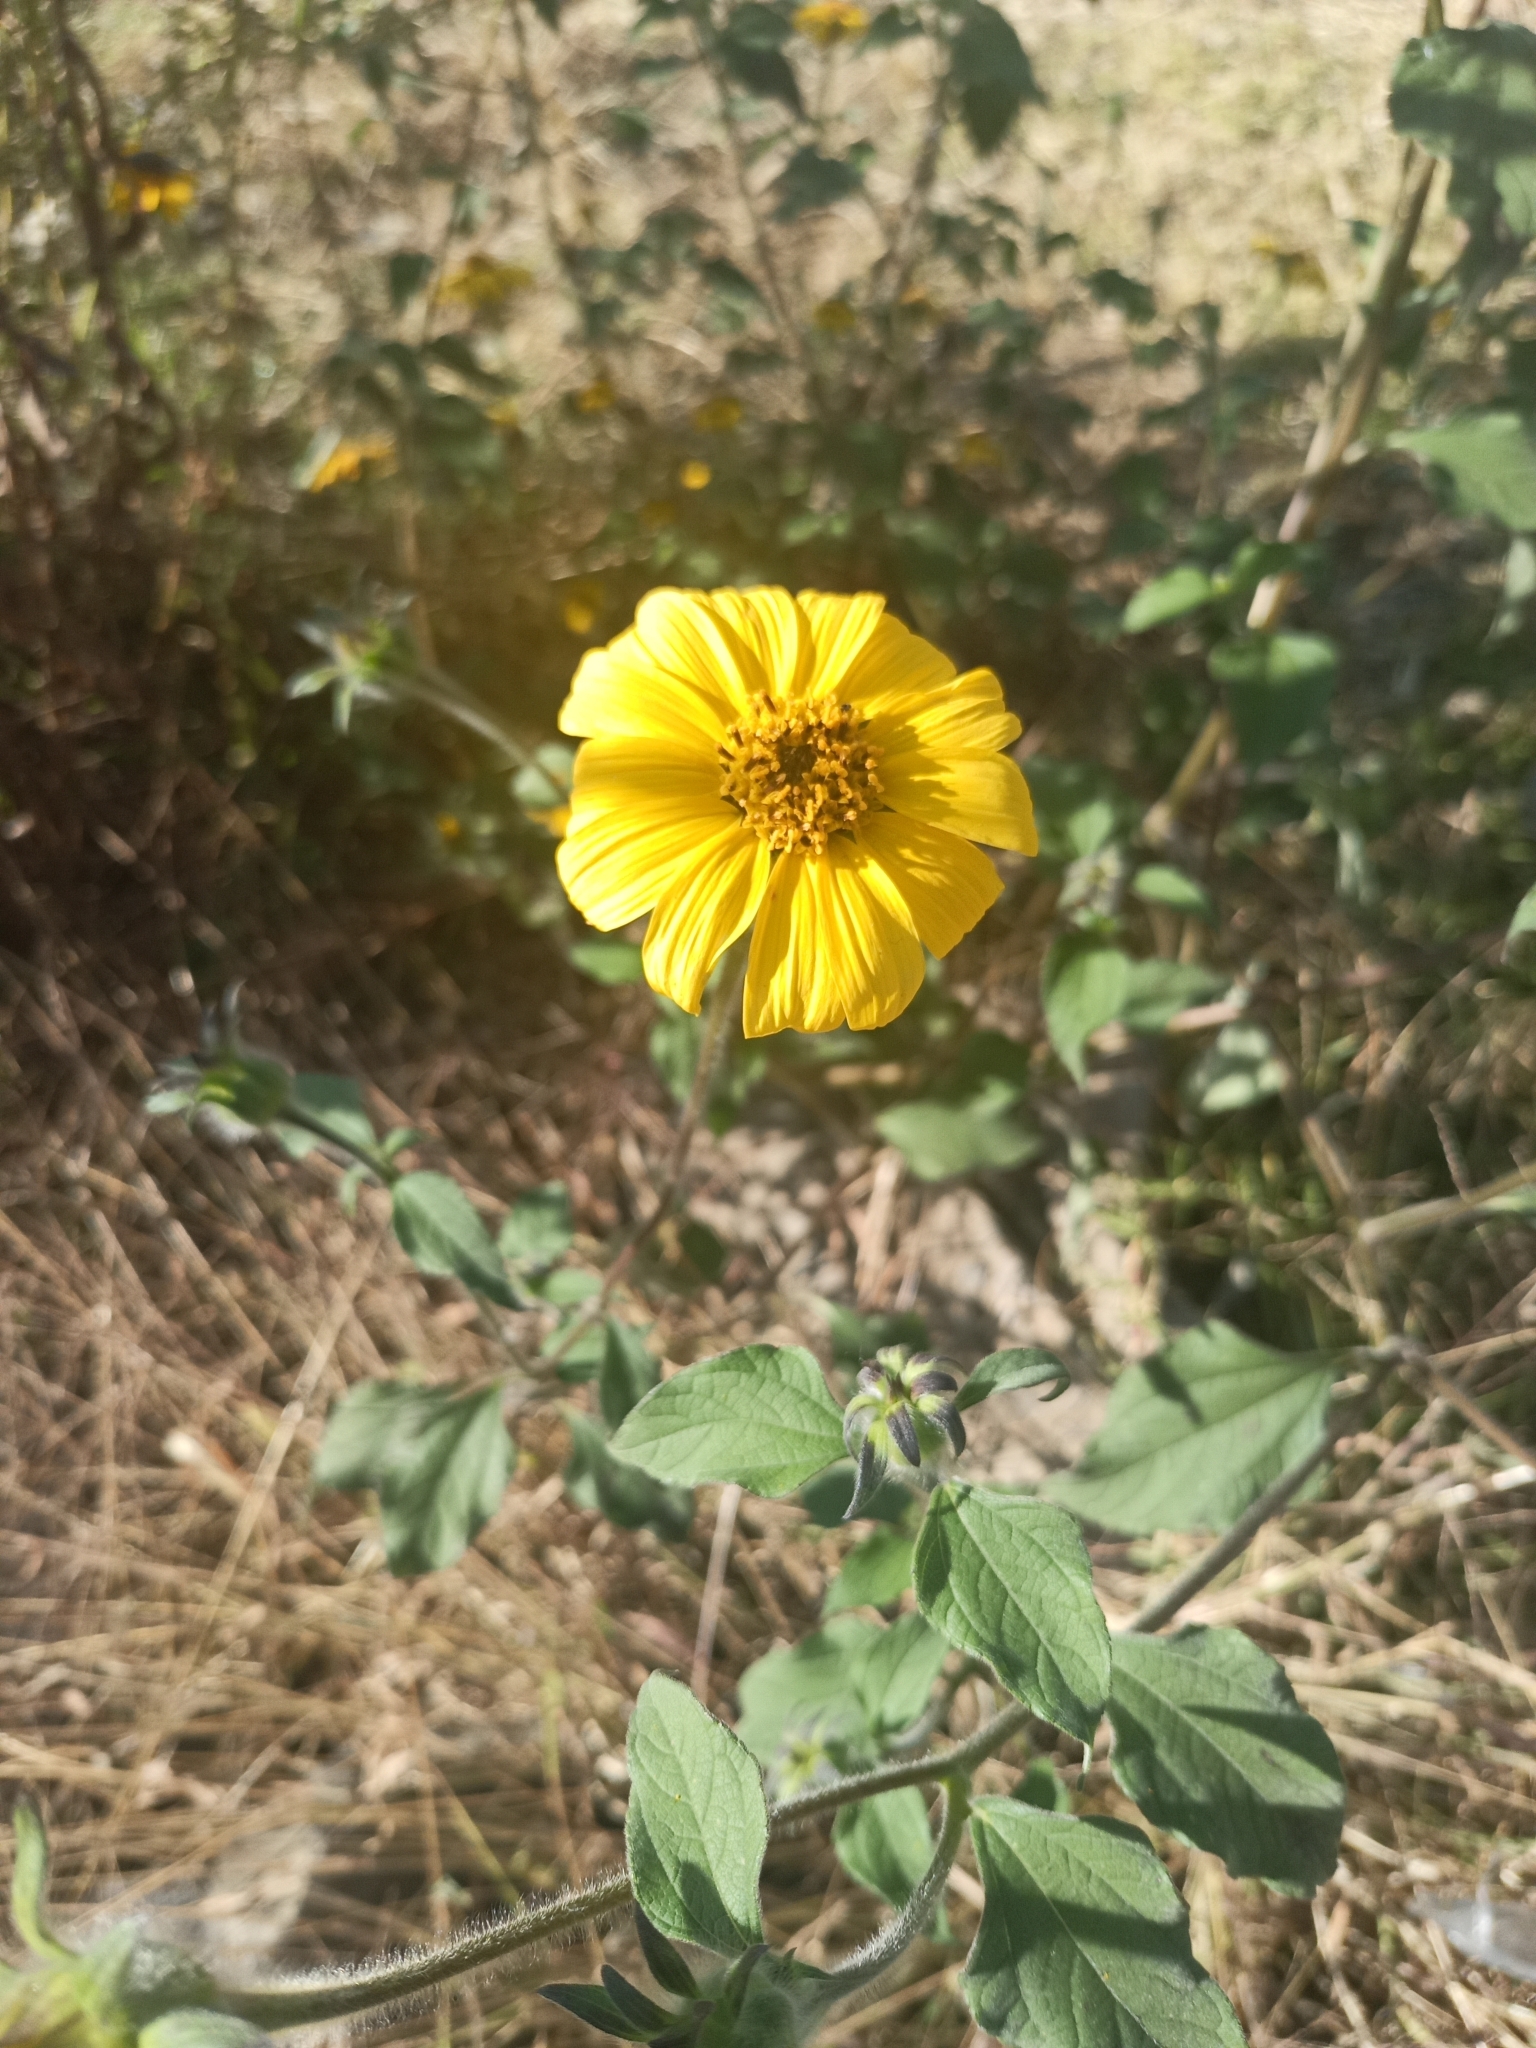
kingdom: Plantae
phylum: Tracheophyta
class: Magnoliopsida
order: Asterales
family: Asteraceae
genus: Tithonia
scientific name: Tithonia tubaeformis
